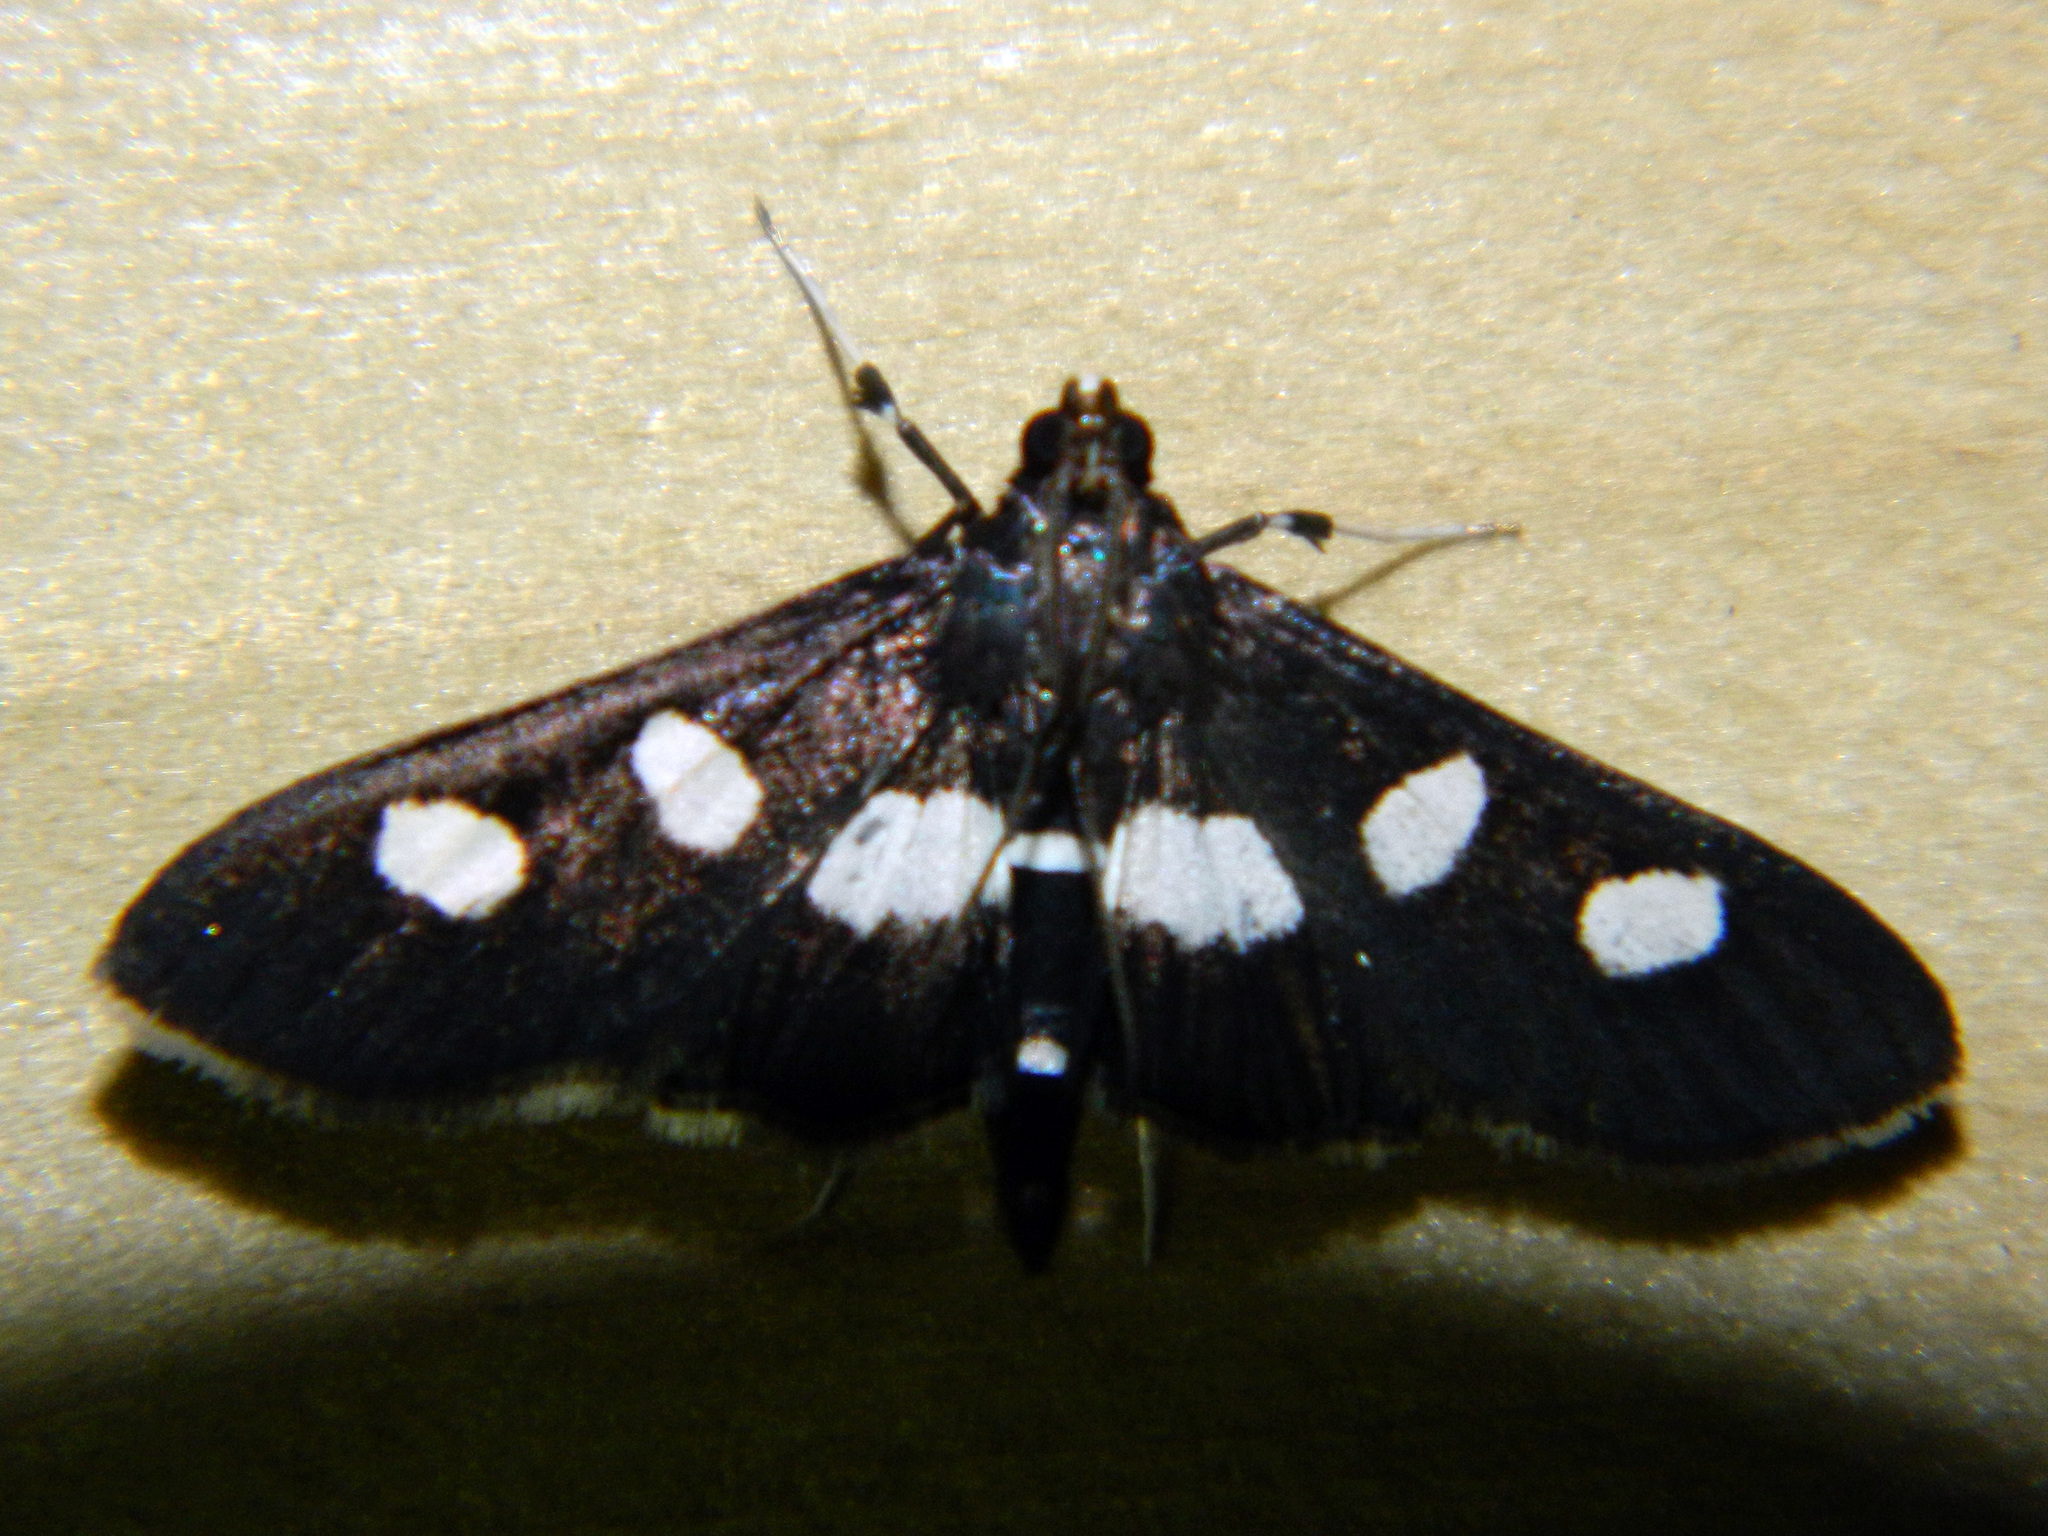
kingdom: Animalia
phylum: Arthropoda
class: Insecta
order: Lepidoptera
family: Crambidae
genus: Desmia
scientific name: Desmia
